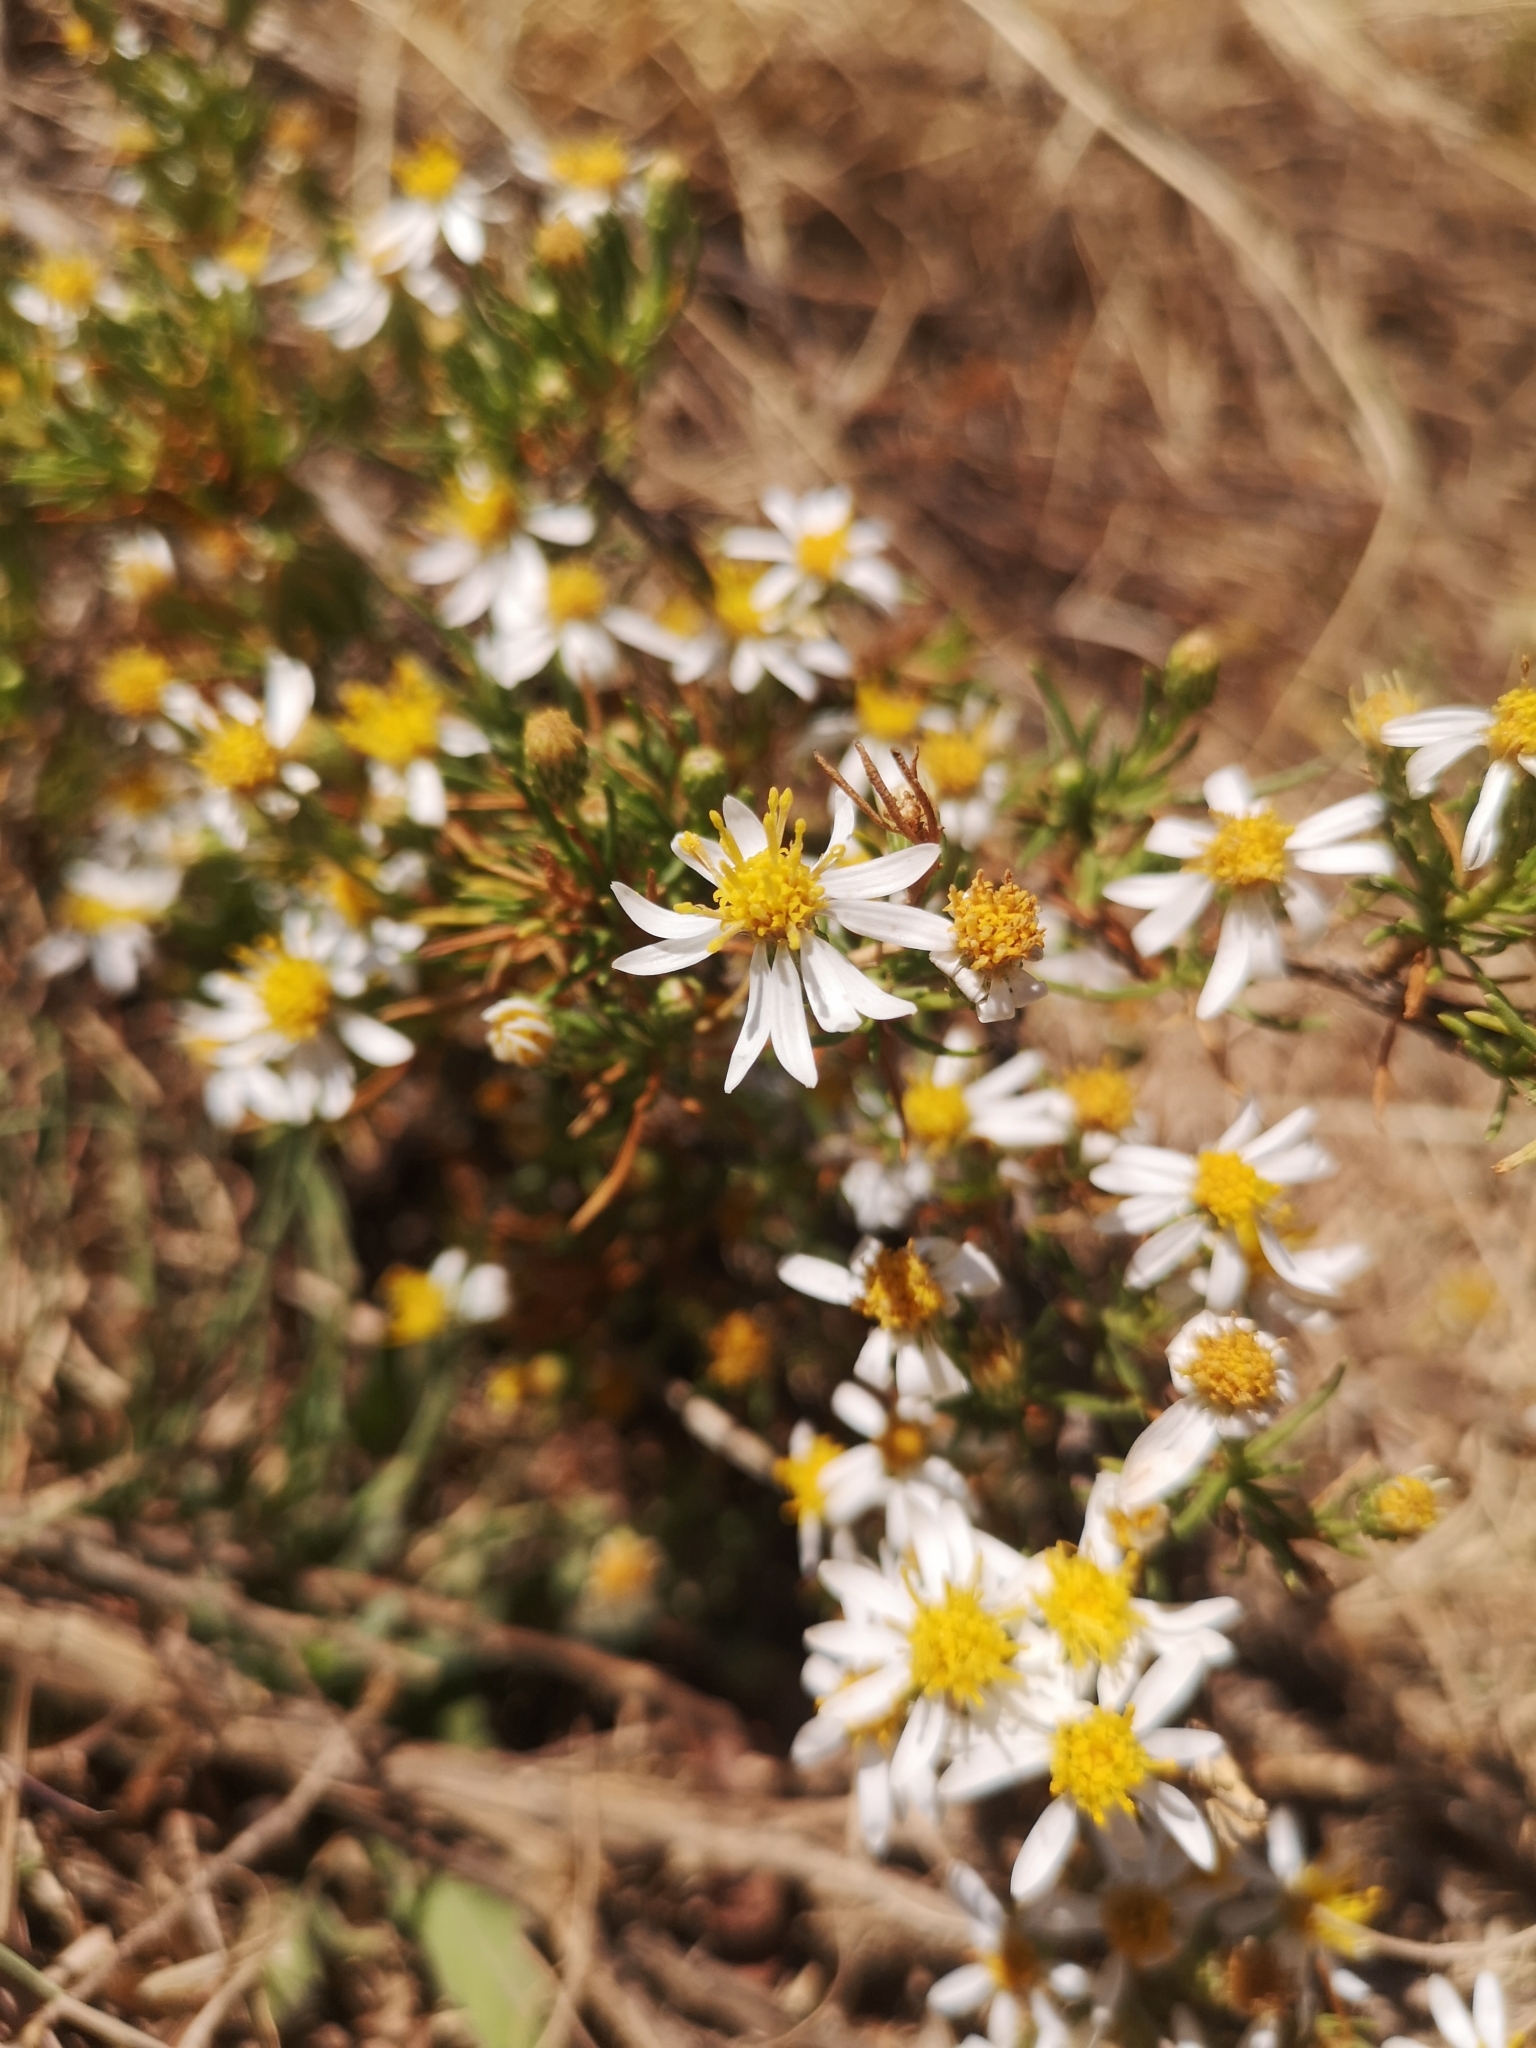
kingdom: Plantae
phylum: Tracheophyta
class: Magnoliopsida
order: Asterales
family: Asteraceae
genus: Felicia
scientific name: Felicia filifolia
